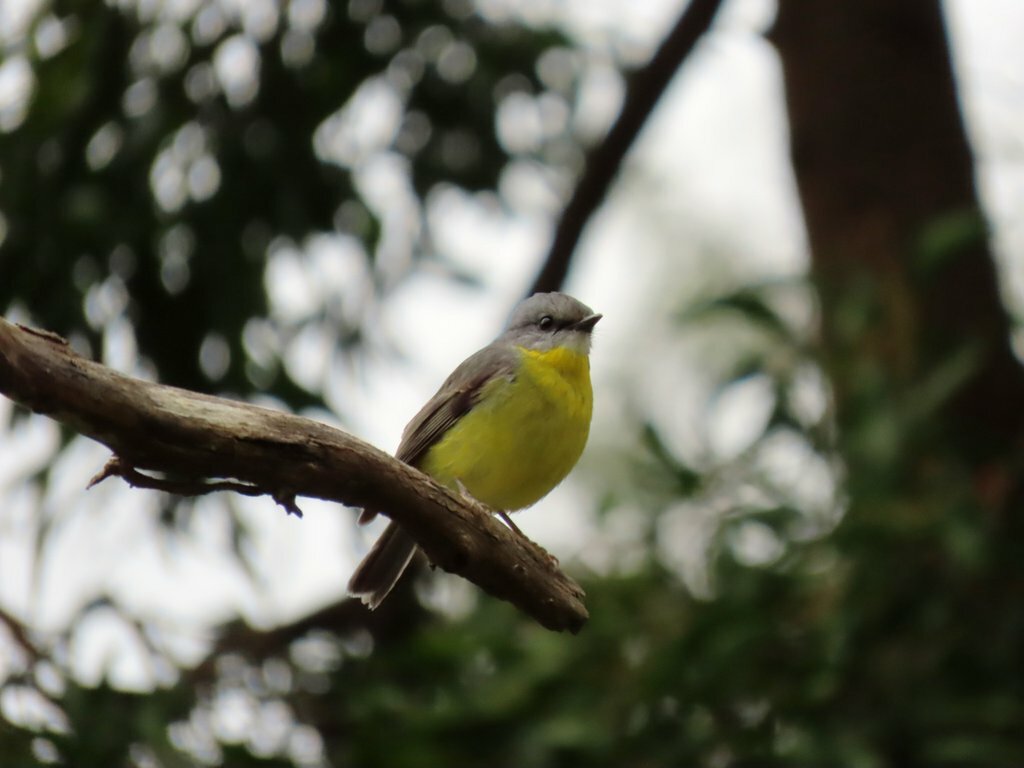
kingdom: Animalia
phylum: Chordata
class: Aves
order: Passeriformes
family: Petroicidae
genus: Eopsaltria
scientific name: Eopsaltria australis
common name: Eastern yellow robin
